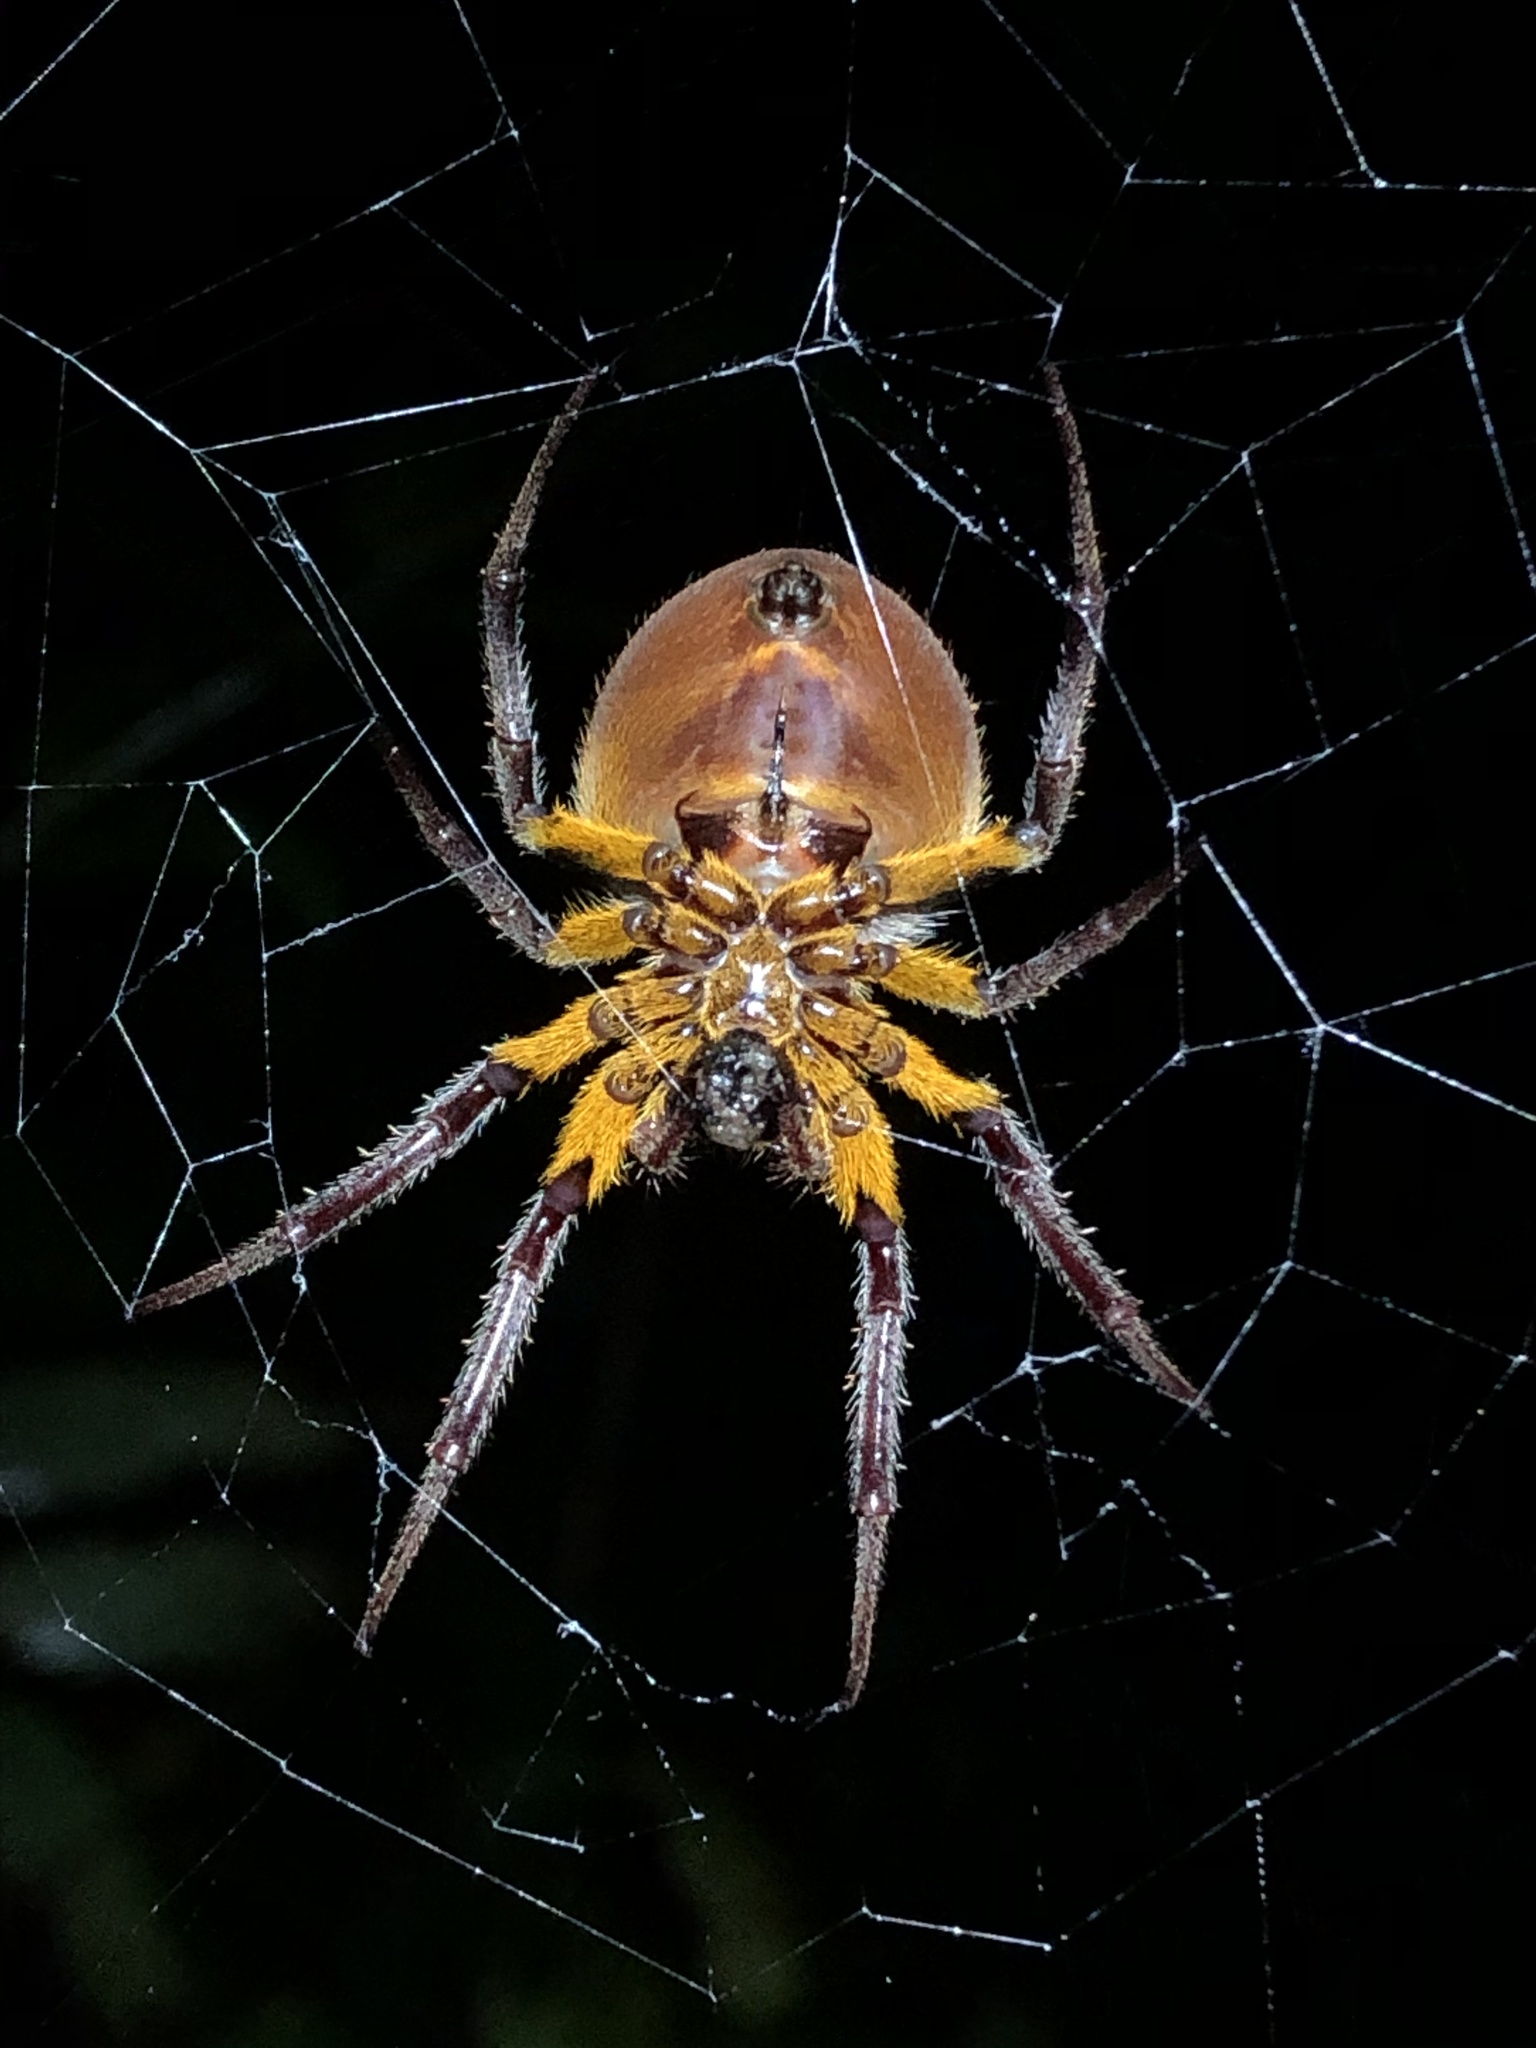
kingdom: Animalia
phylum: Arthropoda
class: Arachnida
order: Araneae
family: Araneidae
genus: Eriophora
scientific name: Eriophora fuliginea
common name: Orb weavers
